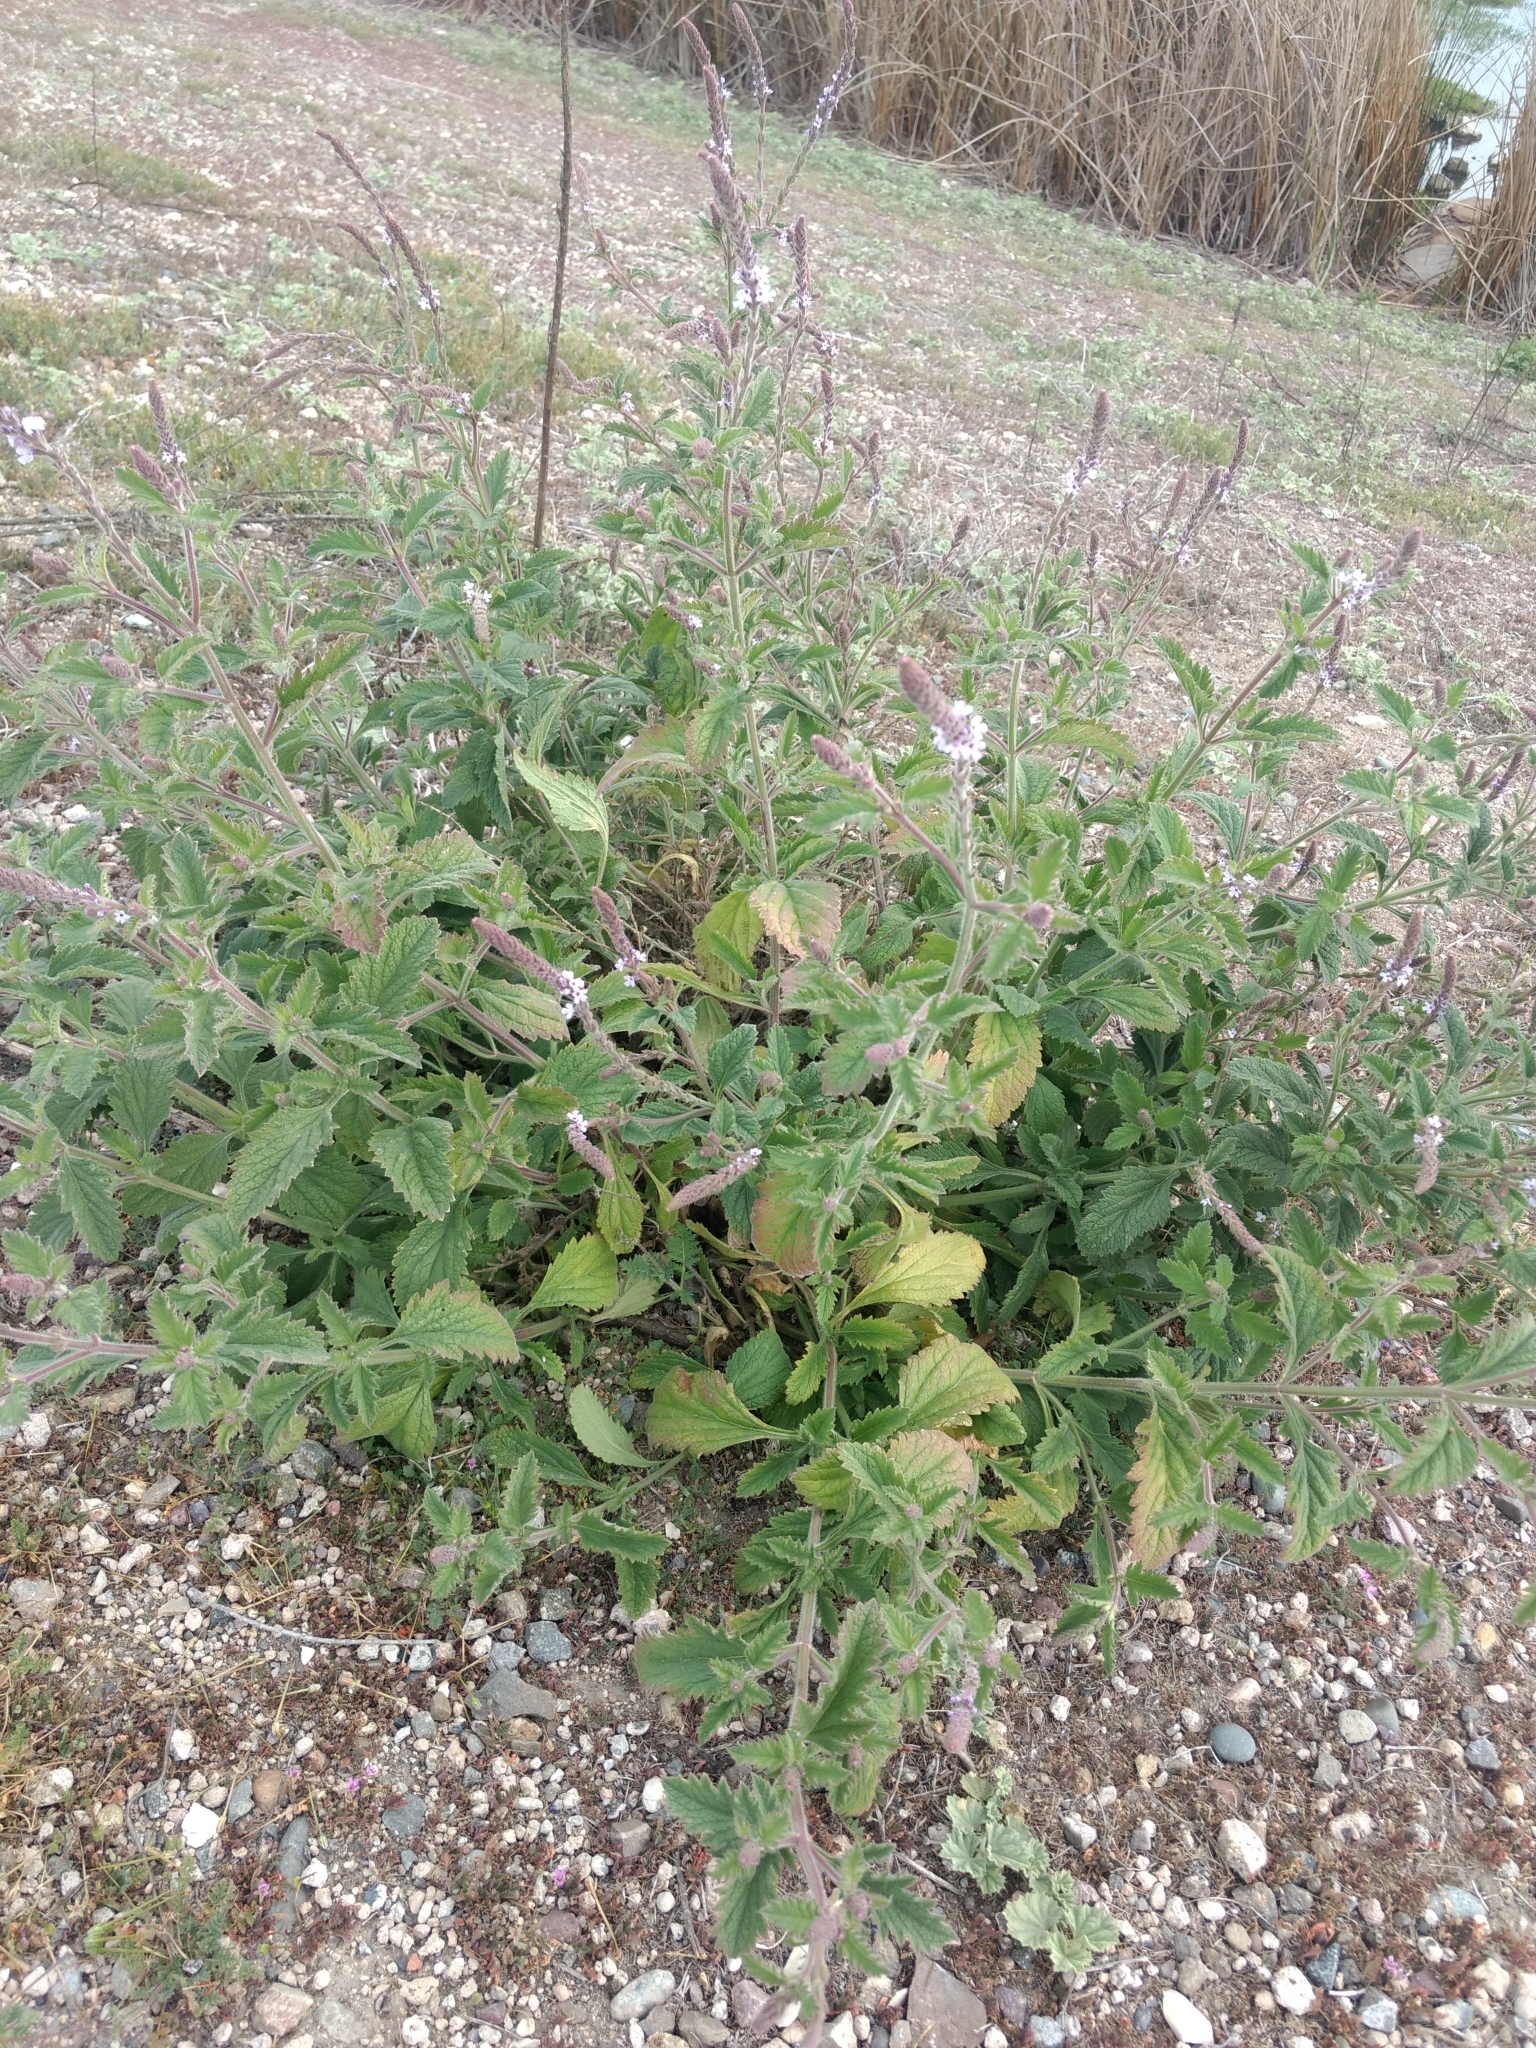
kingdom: Plantae
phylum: Tracheophyta
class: Magnoliopsida
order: Lamiales
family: Verbenaceae
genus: Verbena
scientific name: Verbena lasiostachys
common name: Vervain
